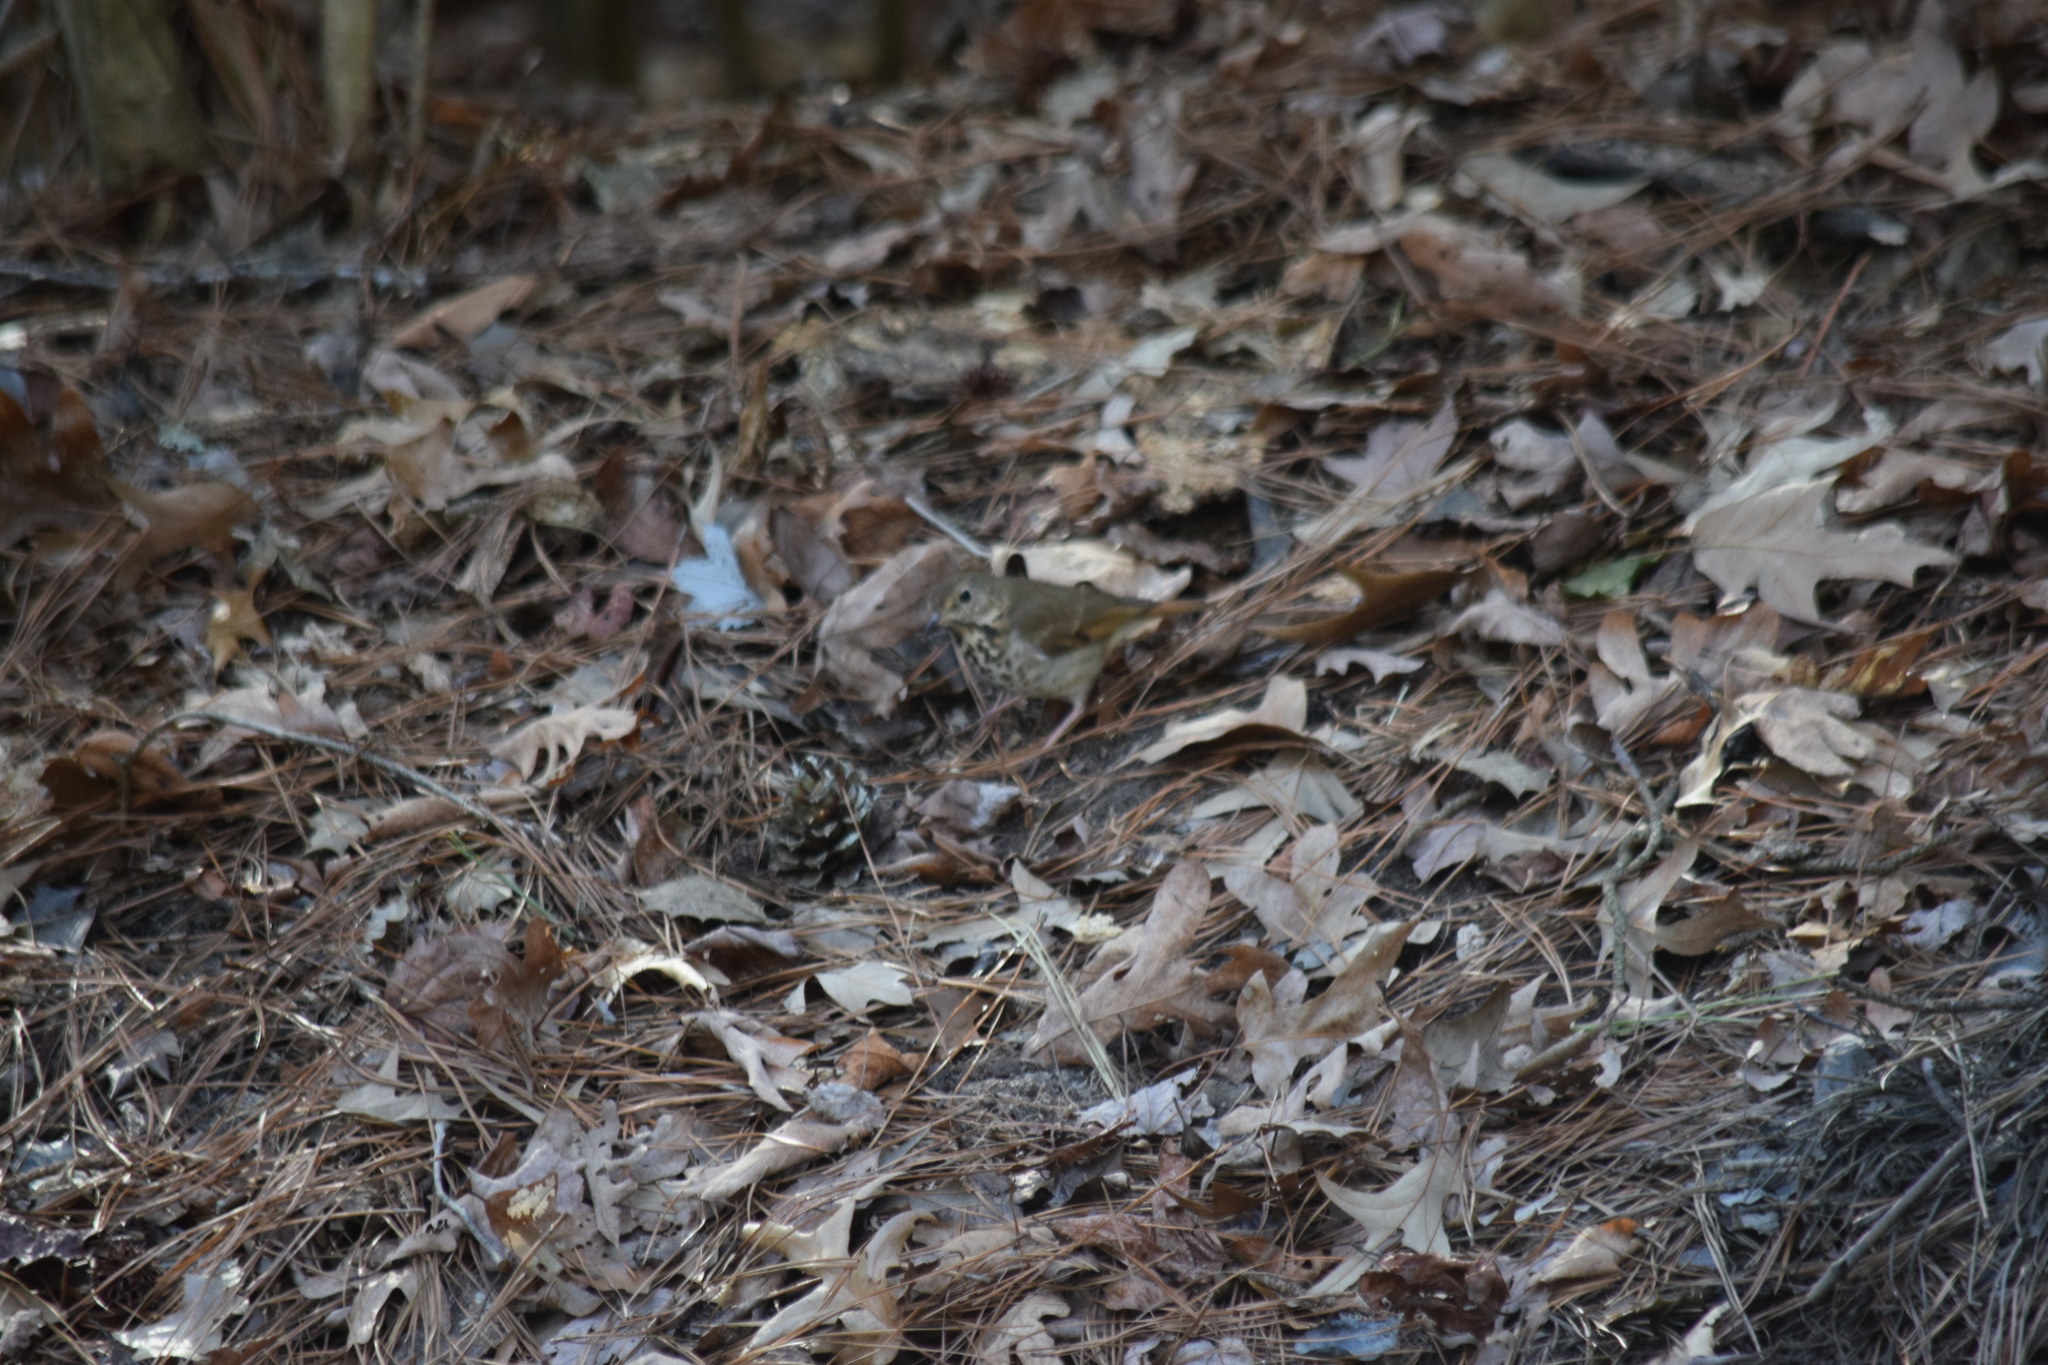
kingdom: Animalia
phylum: Chordata
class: Aves
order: Passeriformes
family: Turdidae
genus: Catharus
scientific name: Catharus guttatus
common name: Hermit thrush
